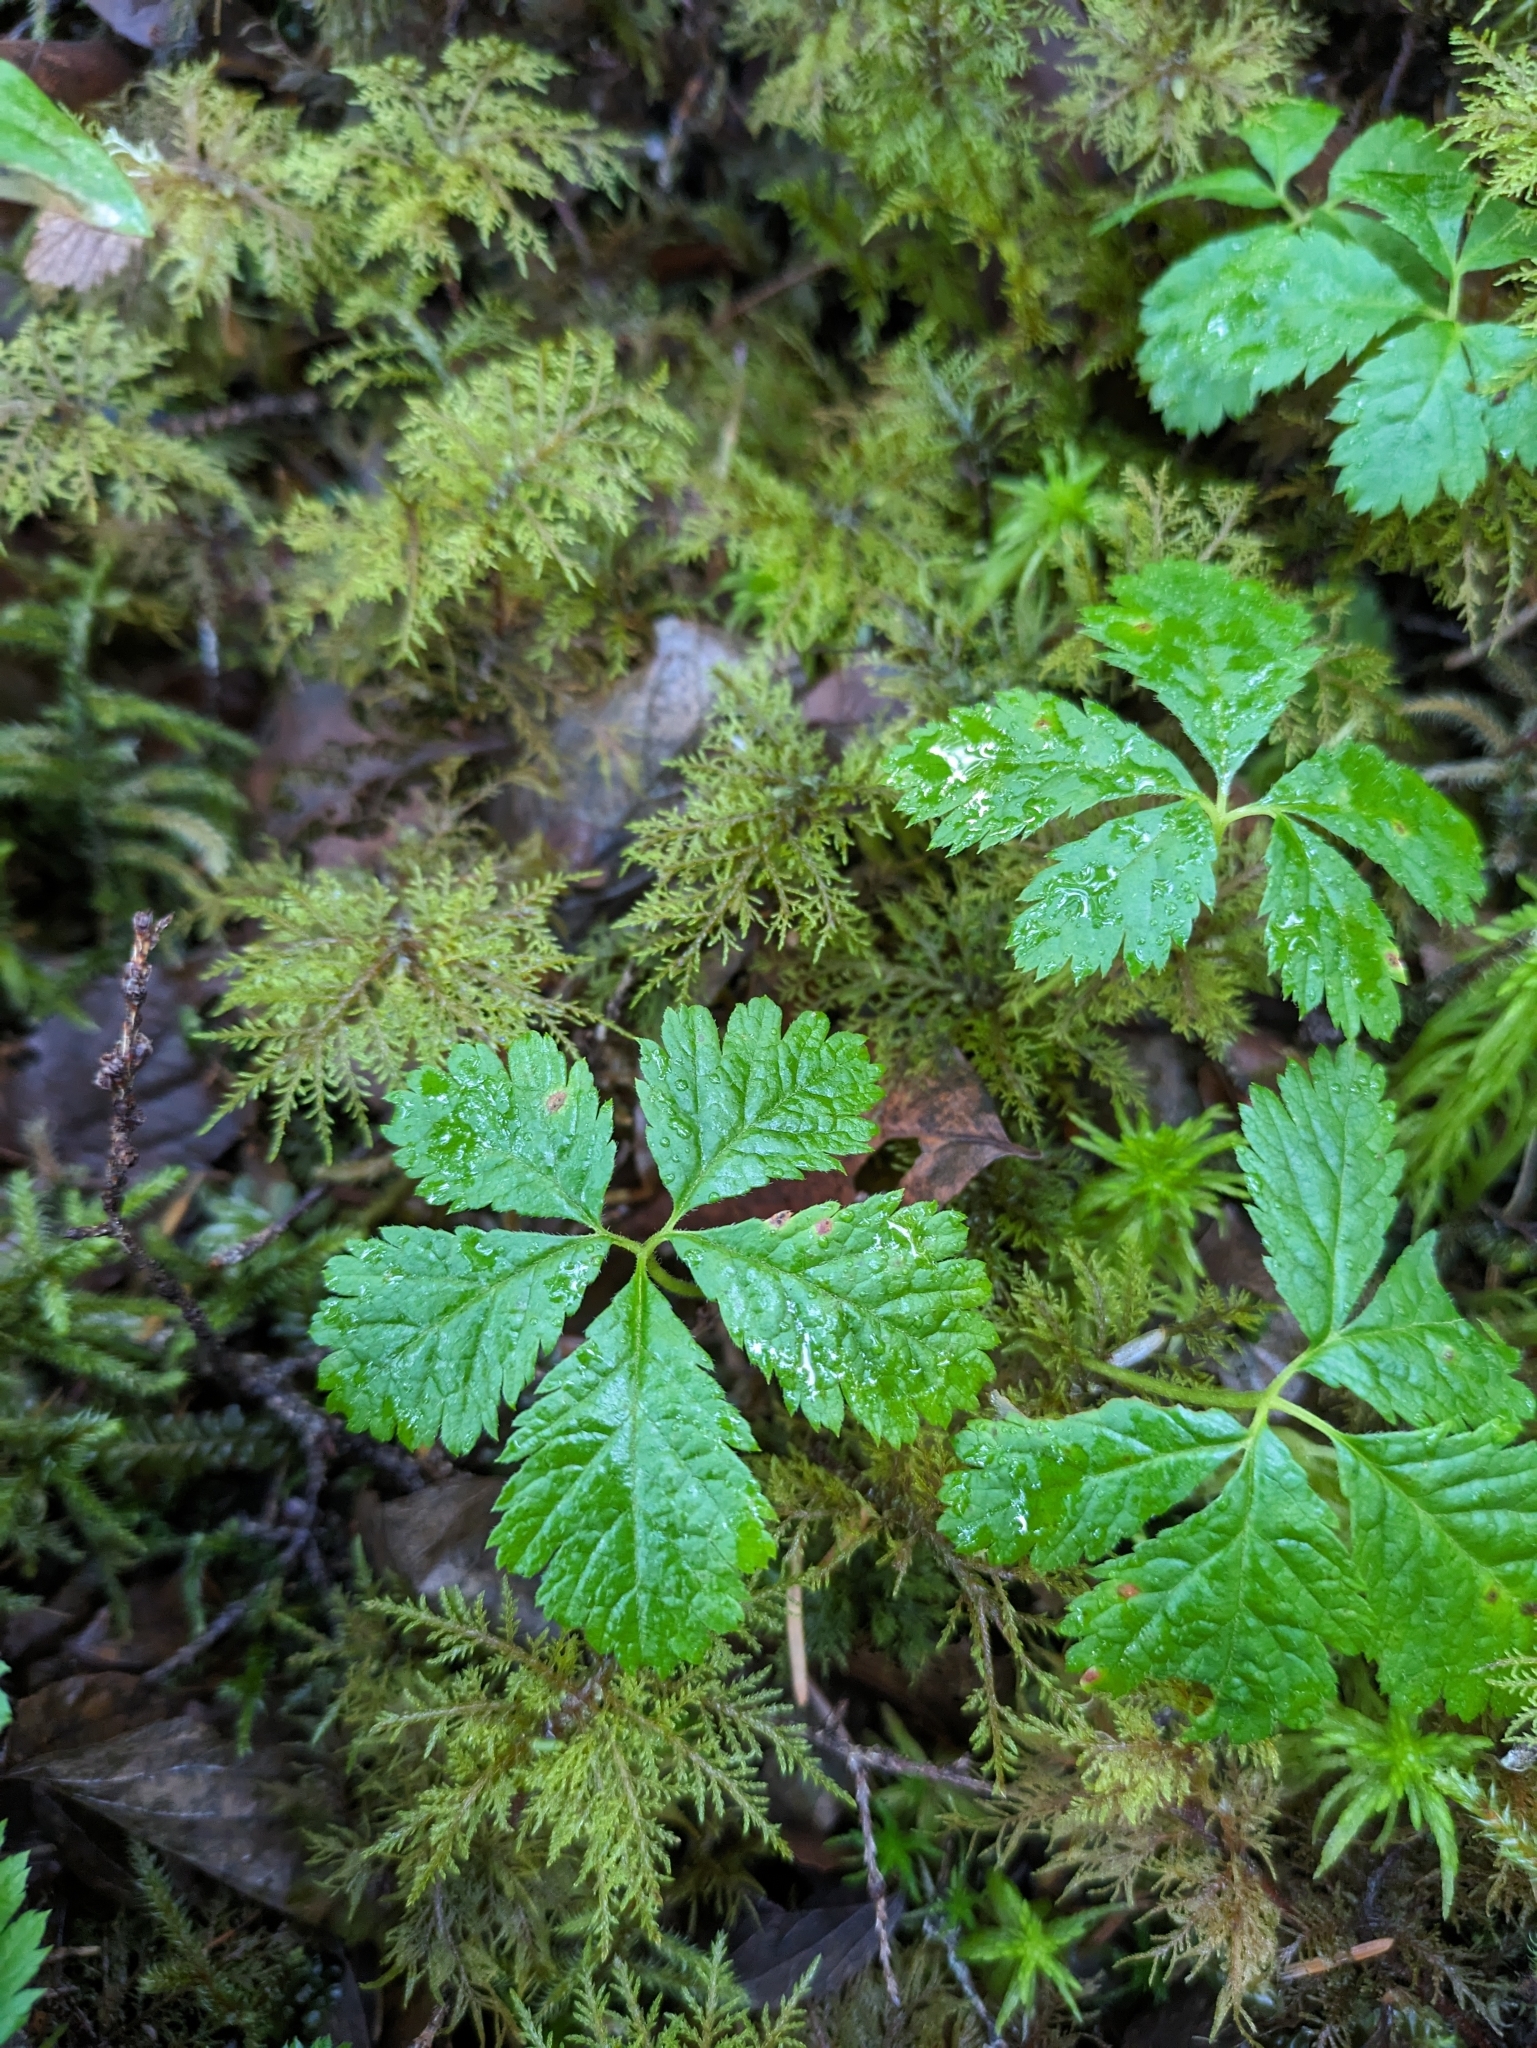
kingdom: Plantae
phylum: Tracheophyta
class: Magnoliopsida
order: Rosales
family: Rosaceae
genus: Rubus
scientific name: Rubus pedatus
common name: Creeping raspberry
